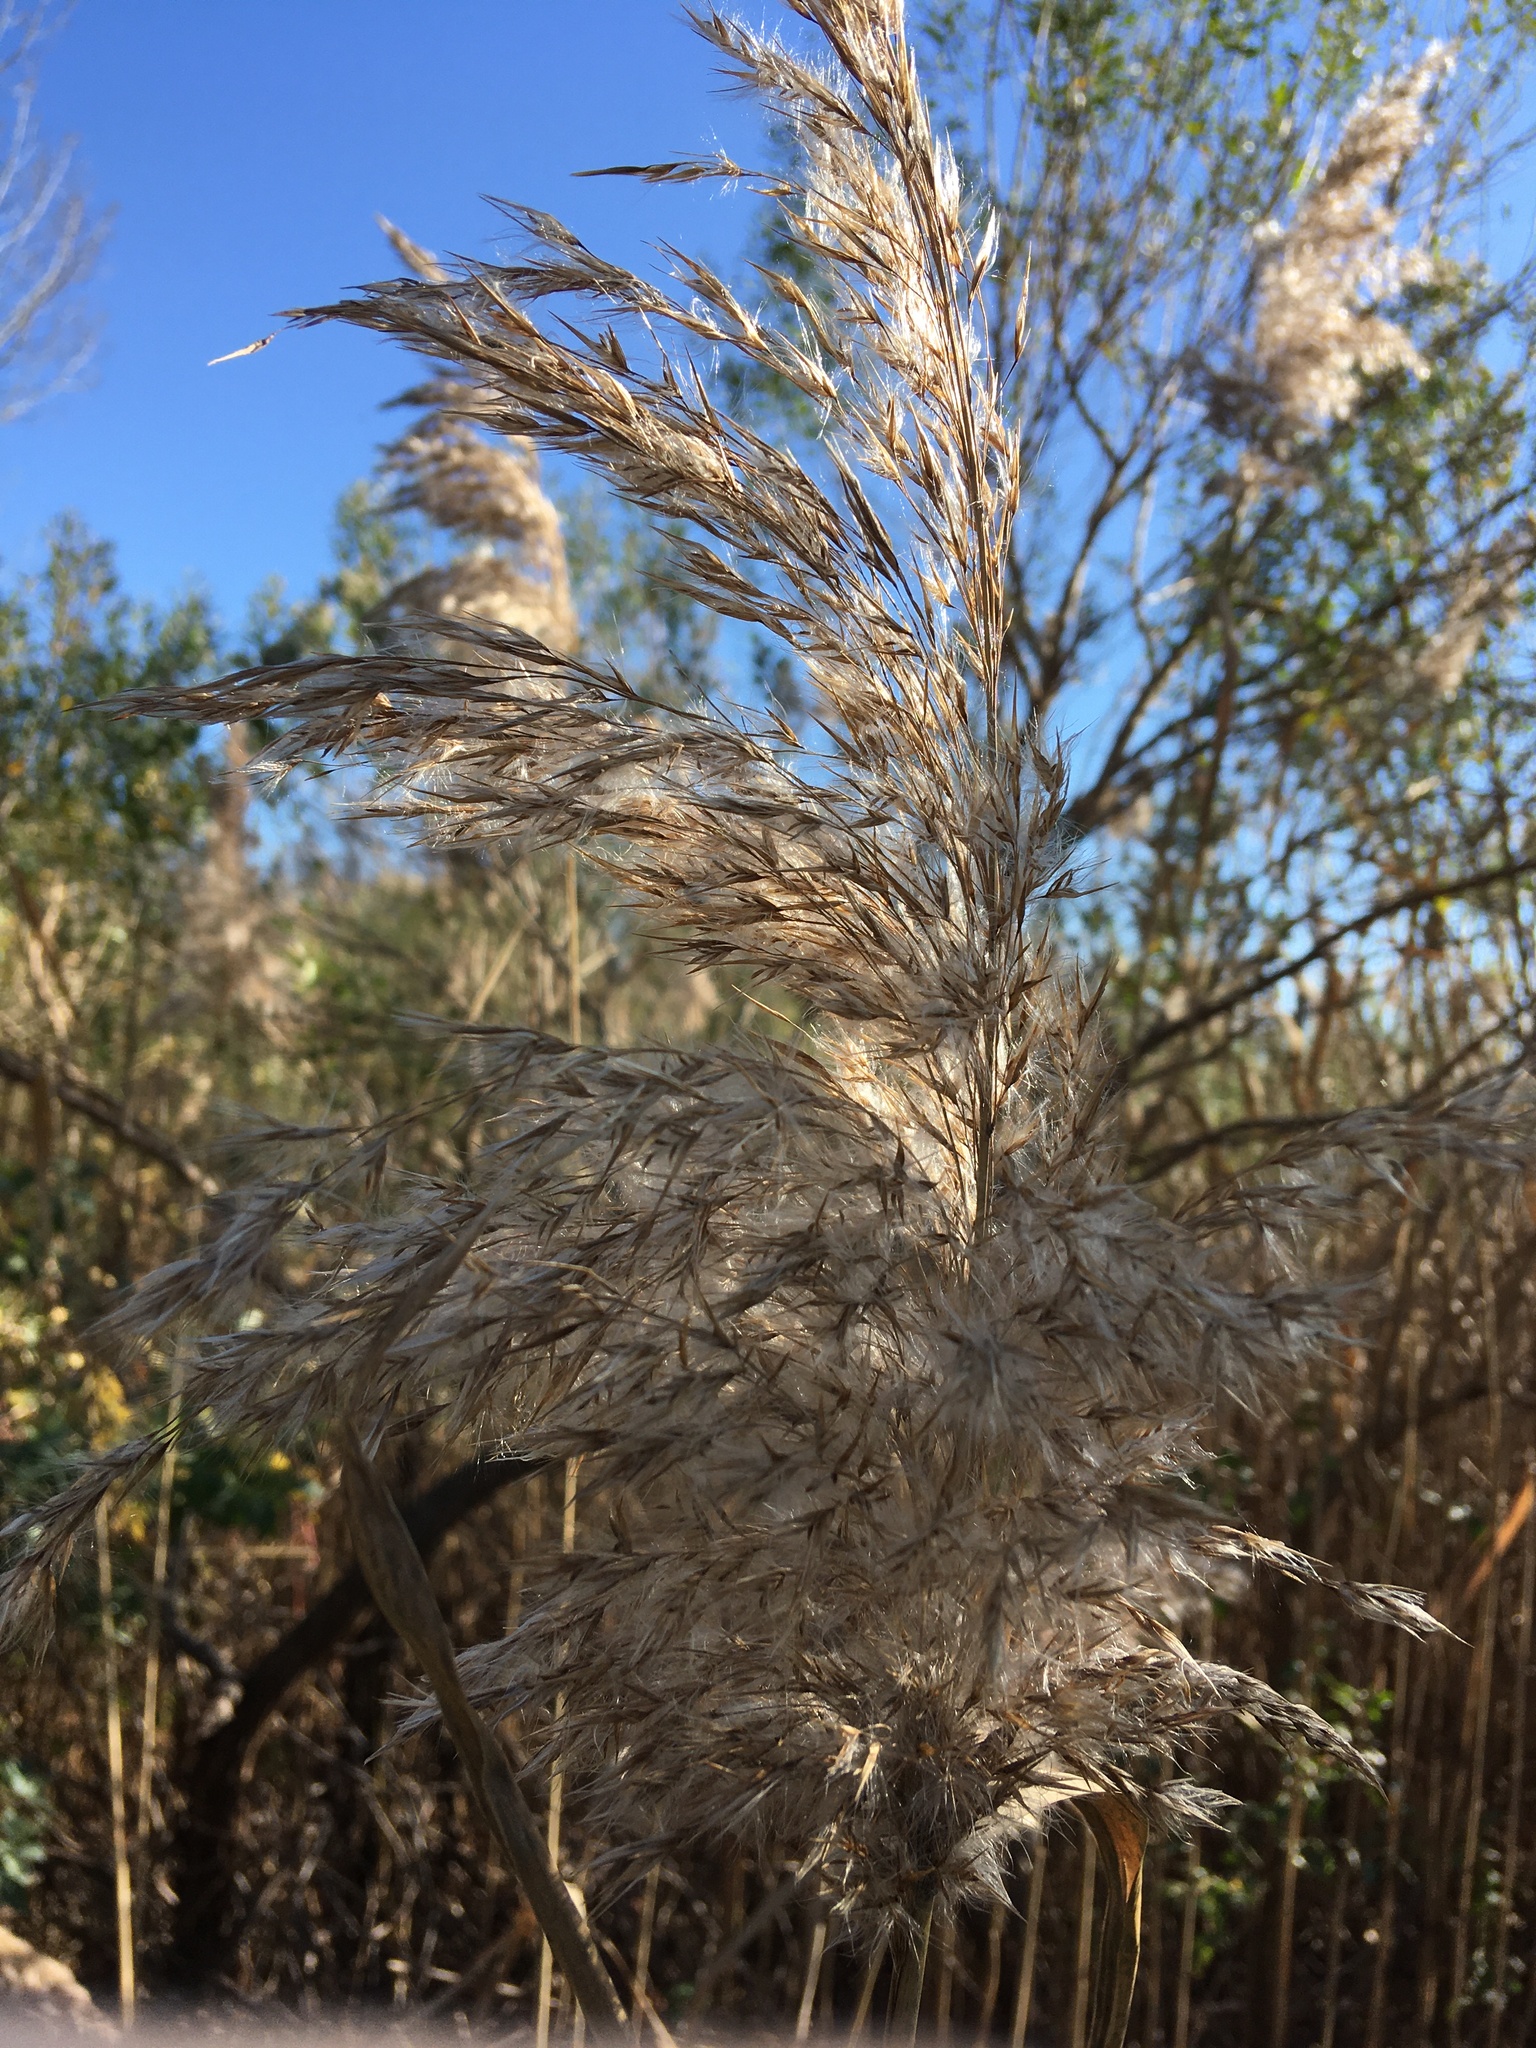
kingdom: Plantae
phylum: Tracheophyta
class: Magnoliopsida
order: Asterales
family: Asteraceae
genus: Baccharis
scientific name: Baccharis halimifolia
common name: Eastern baccharis
